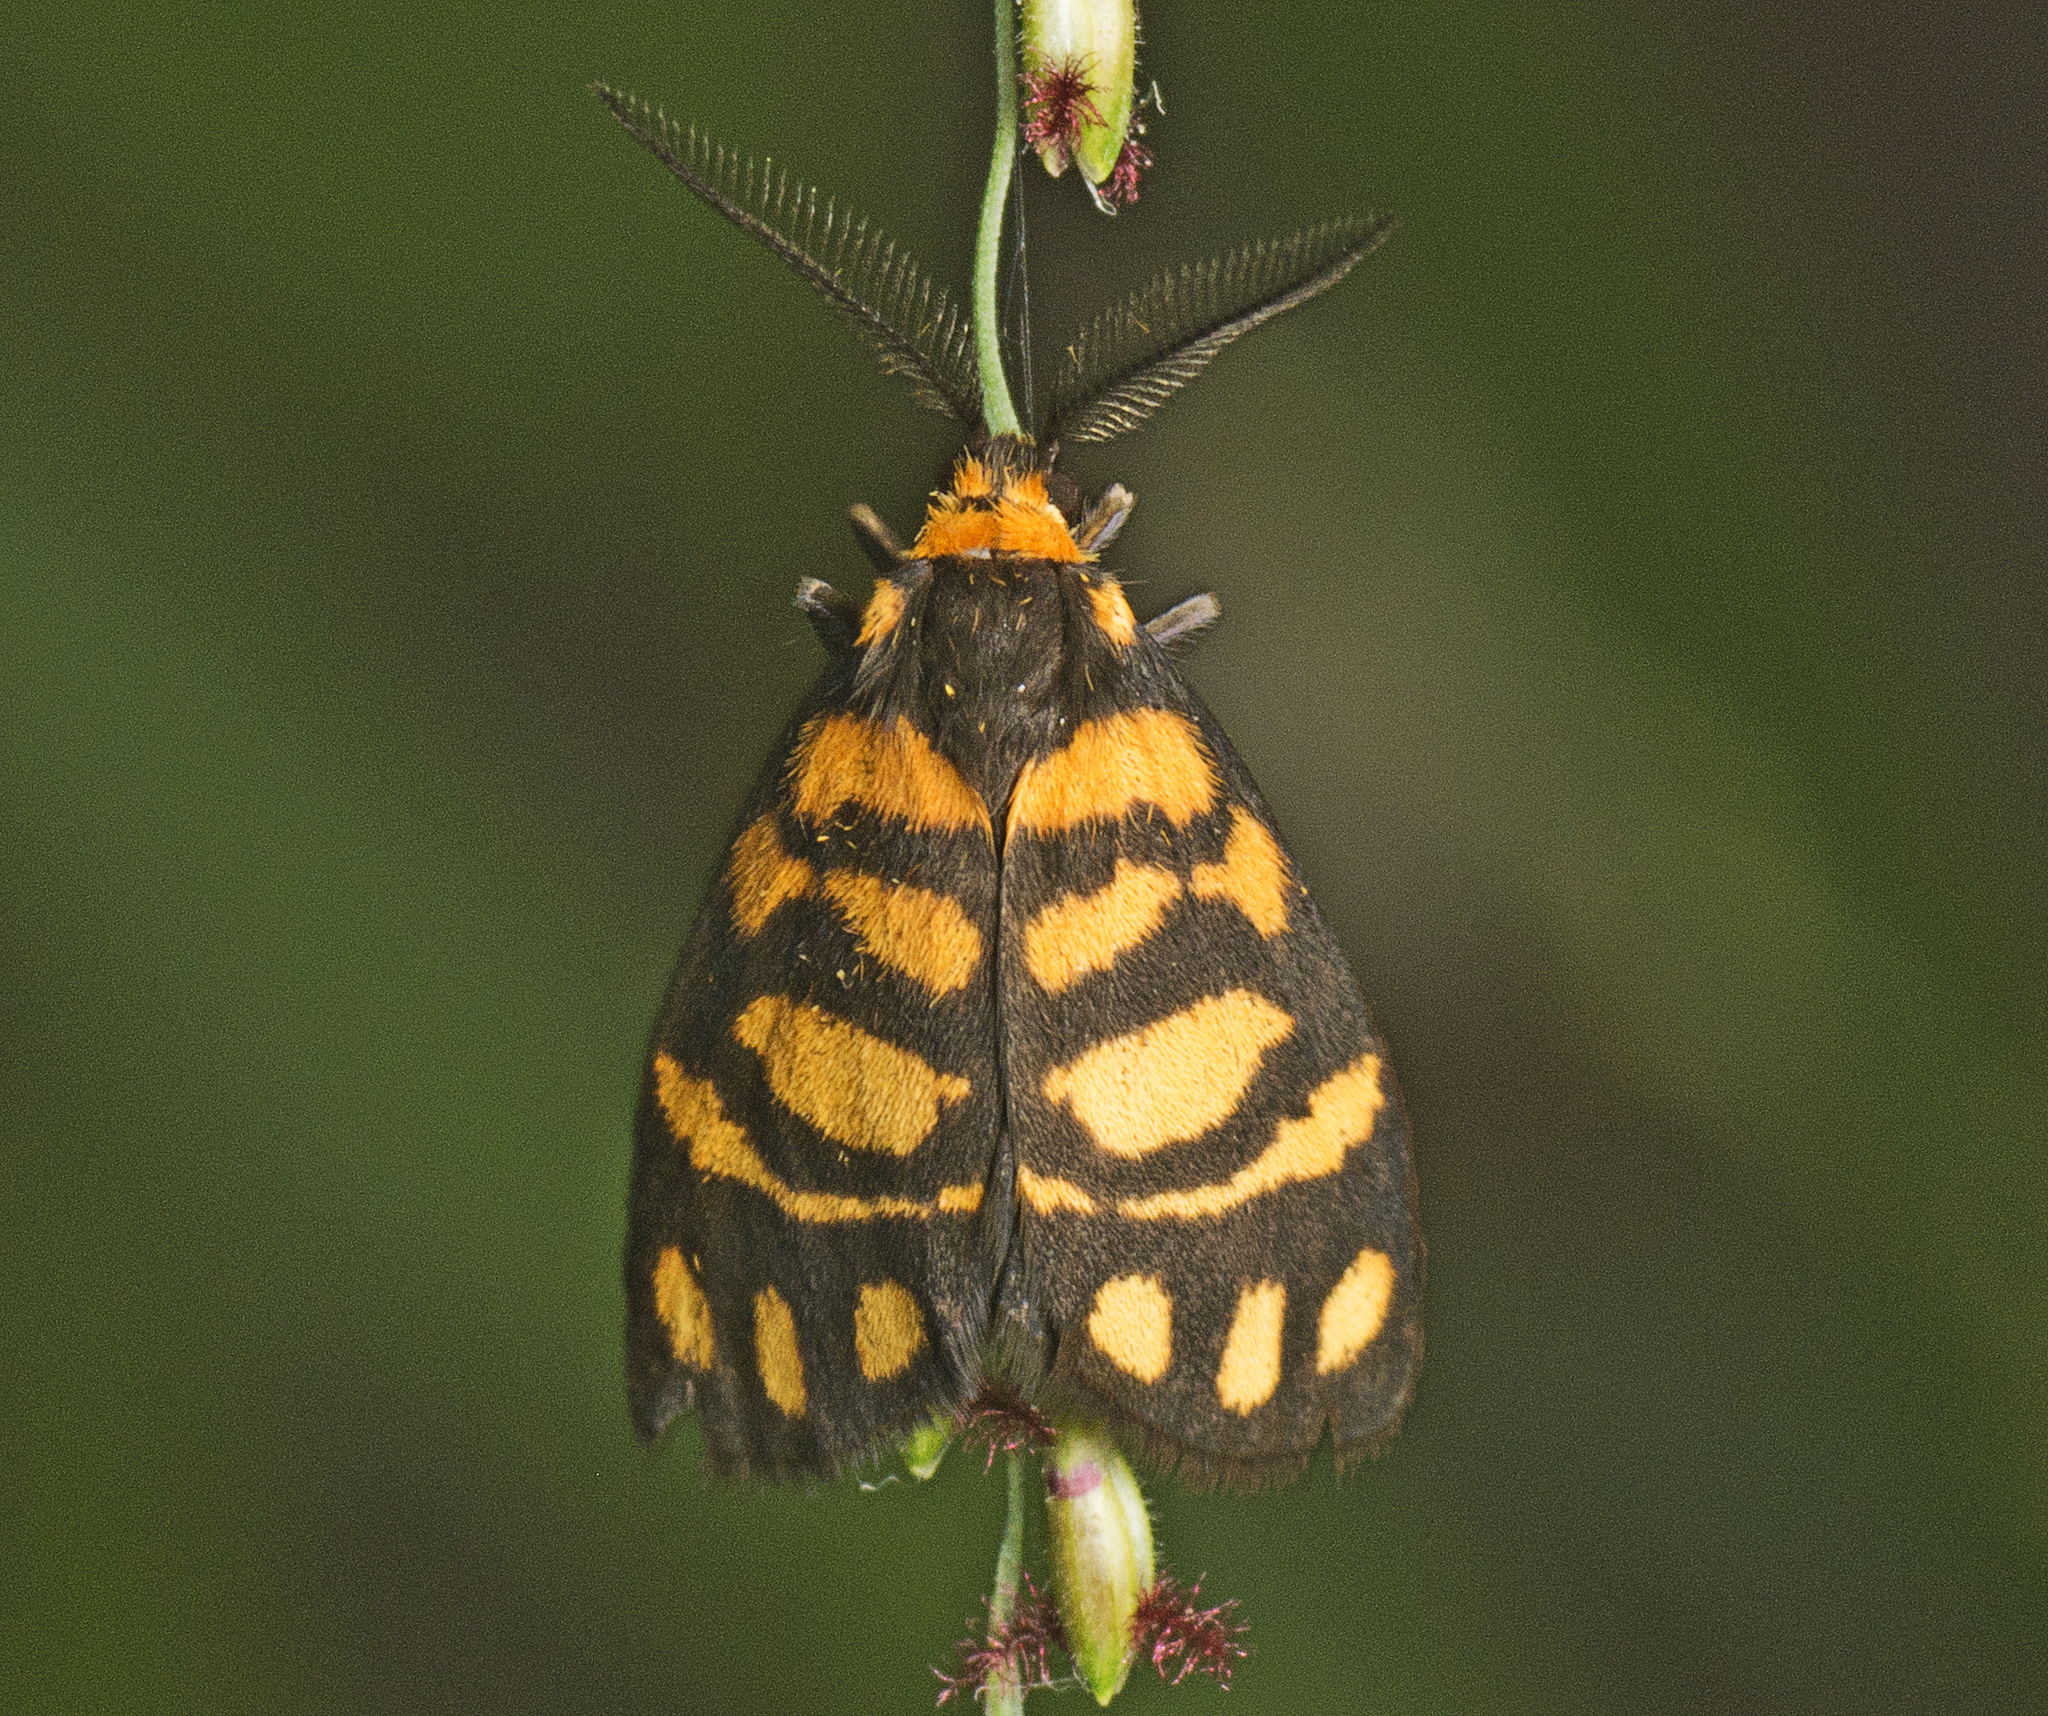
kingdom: Animalia
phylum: Arthropoda
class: Insecta
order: Lepidoptera
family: Erebidae
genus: Asura
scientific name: Asura lydia
